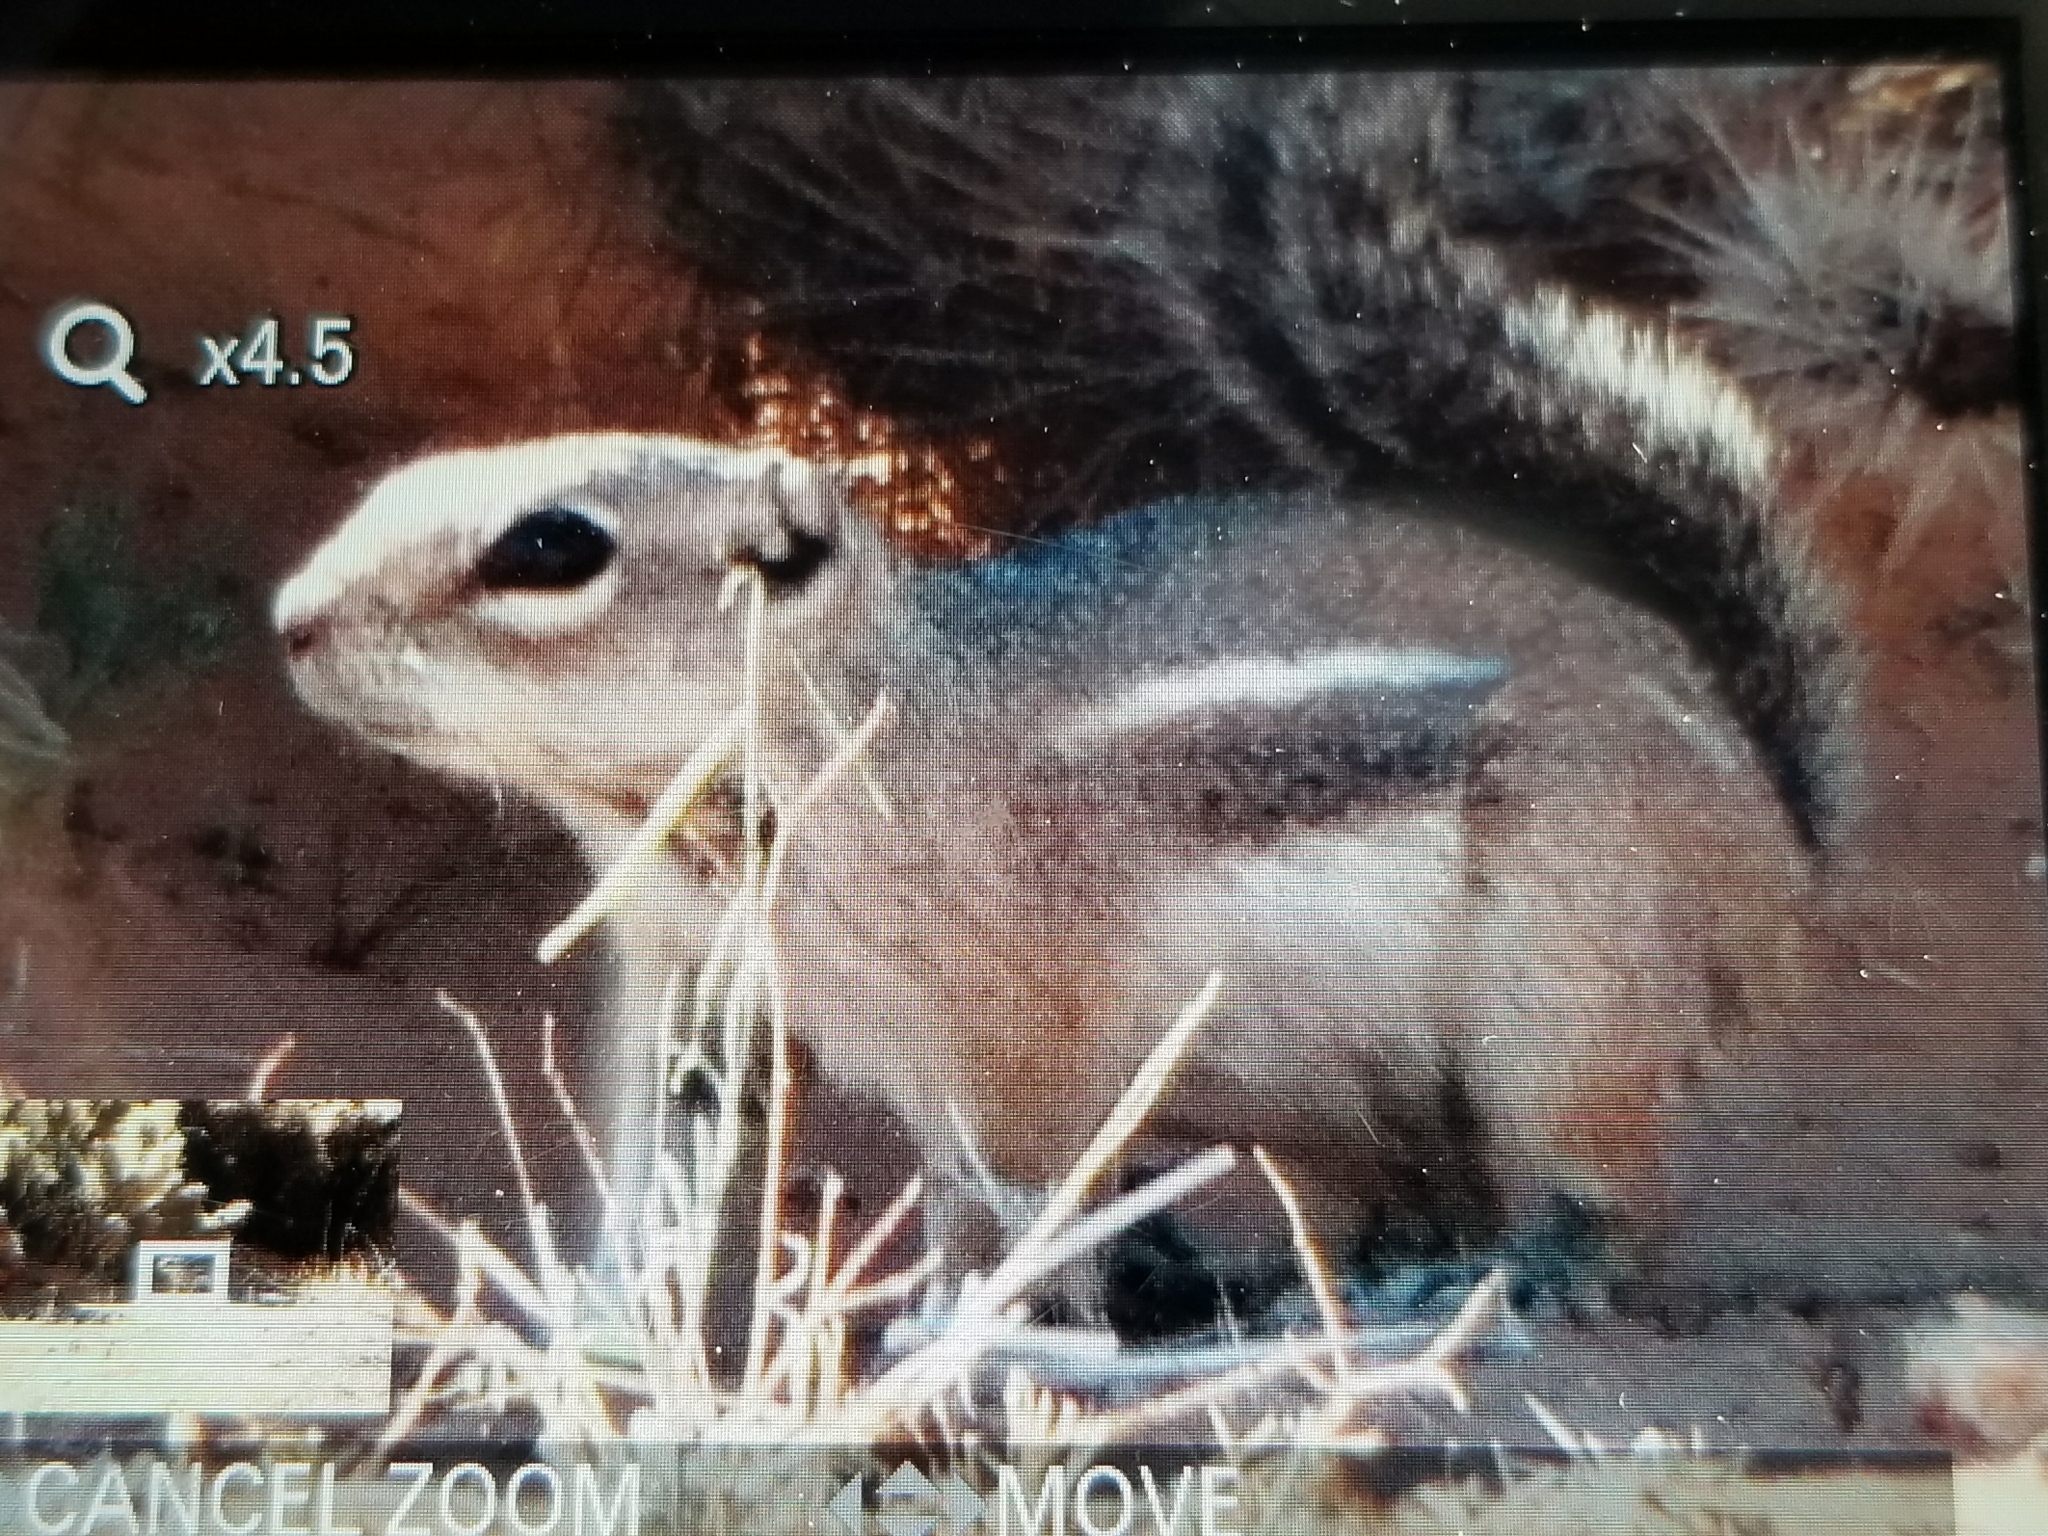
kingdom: Animalia
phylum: Chordata
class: Mammalia
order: Rodentia
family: Sciuridae
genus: Ammospermophilus
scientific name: Ammospermophilus harrisii
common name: Harris's antelope squirrel
